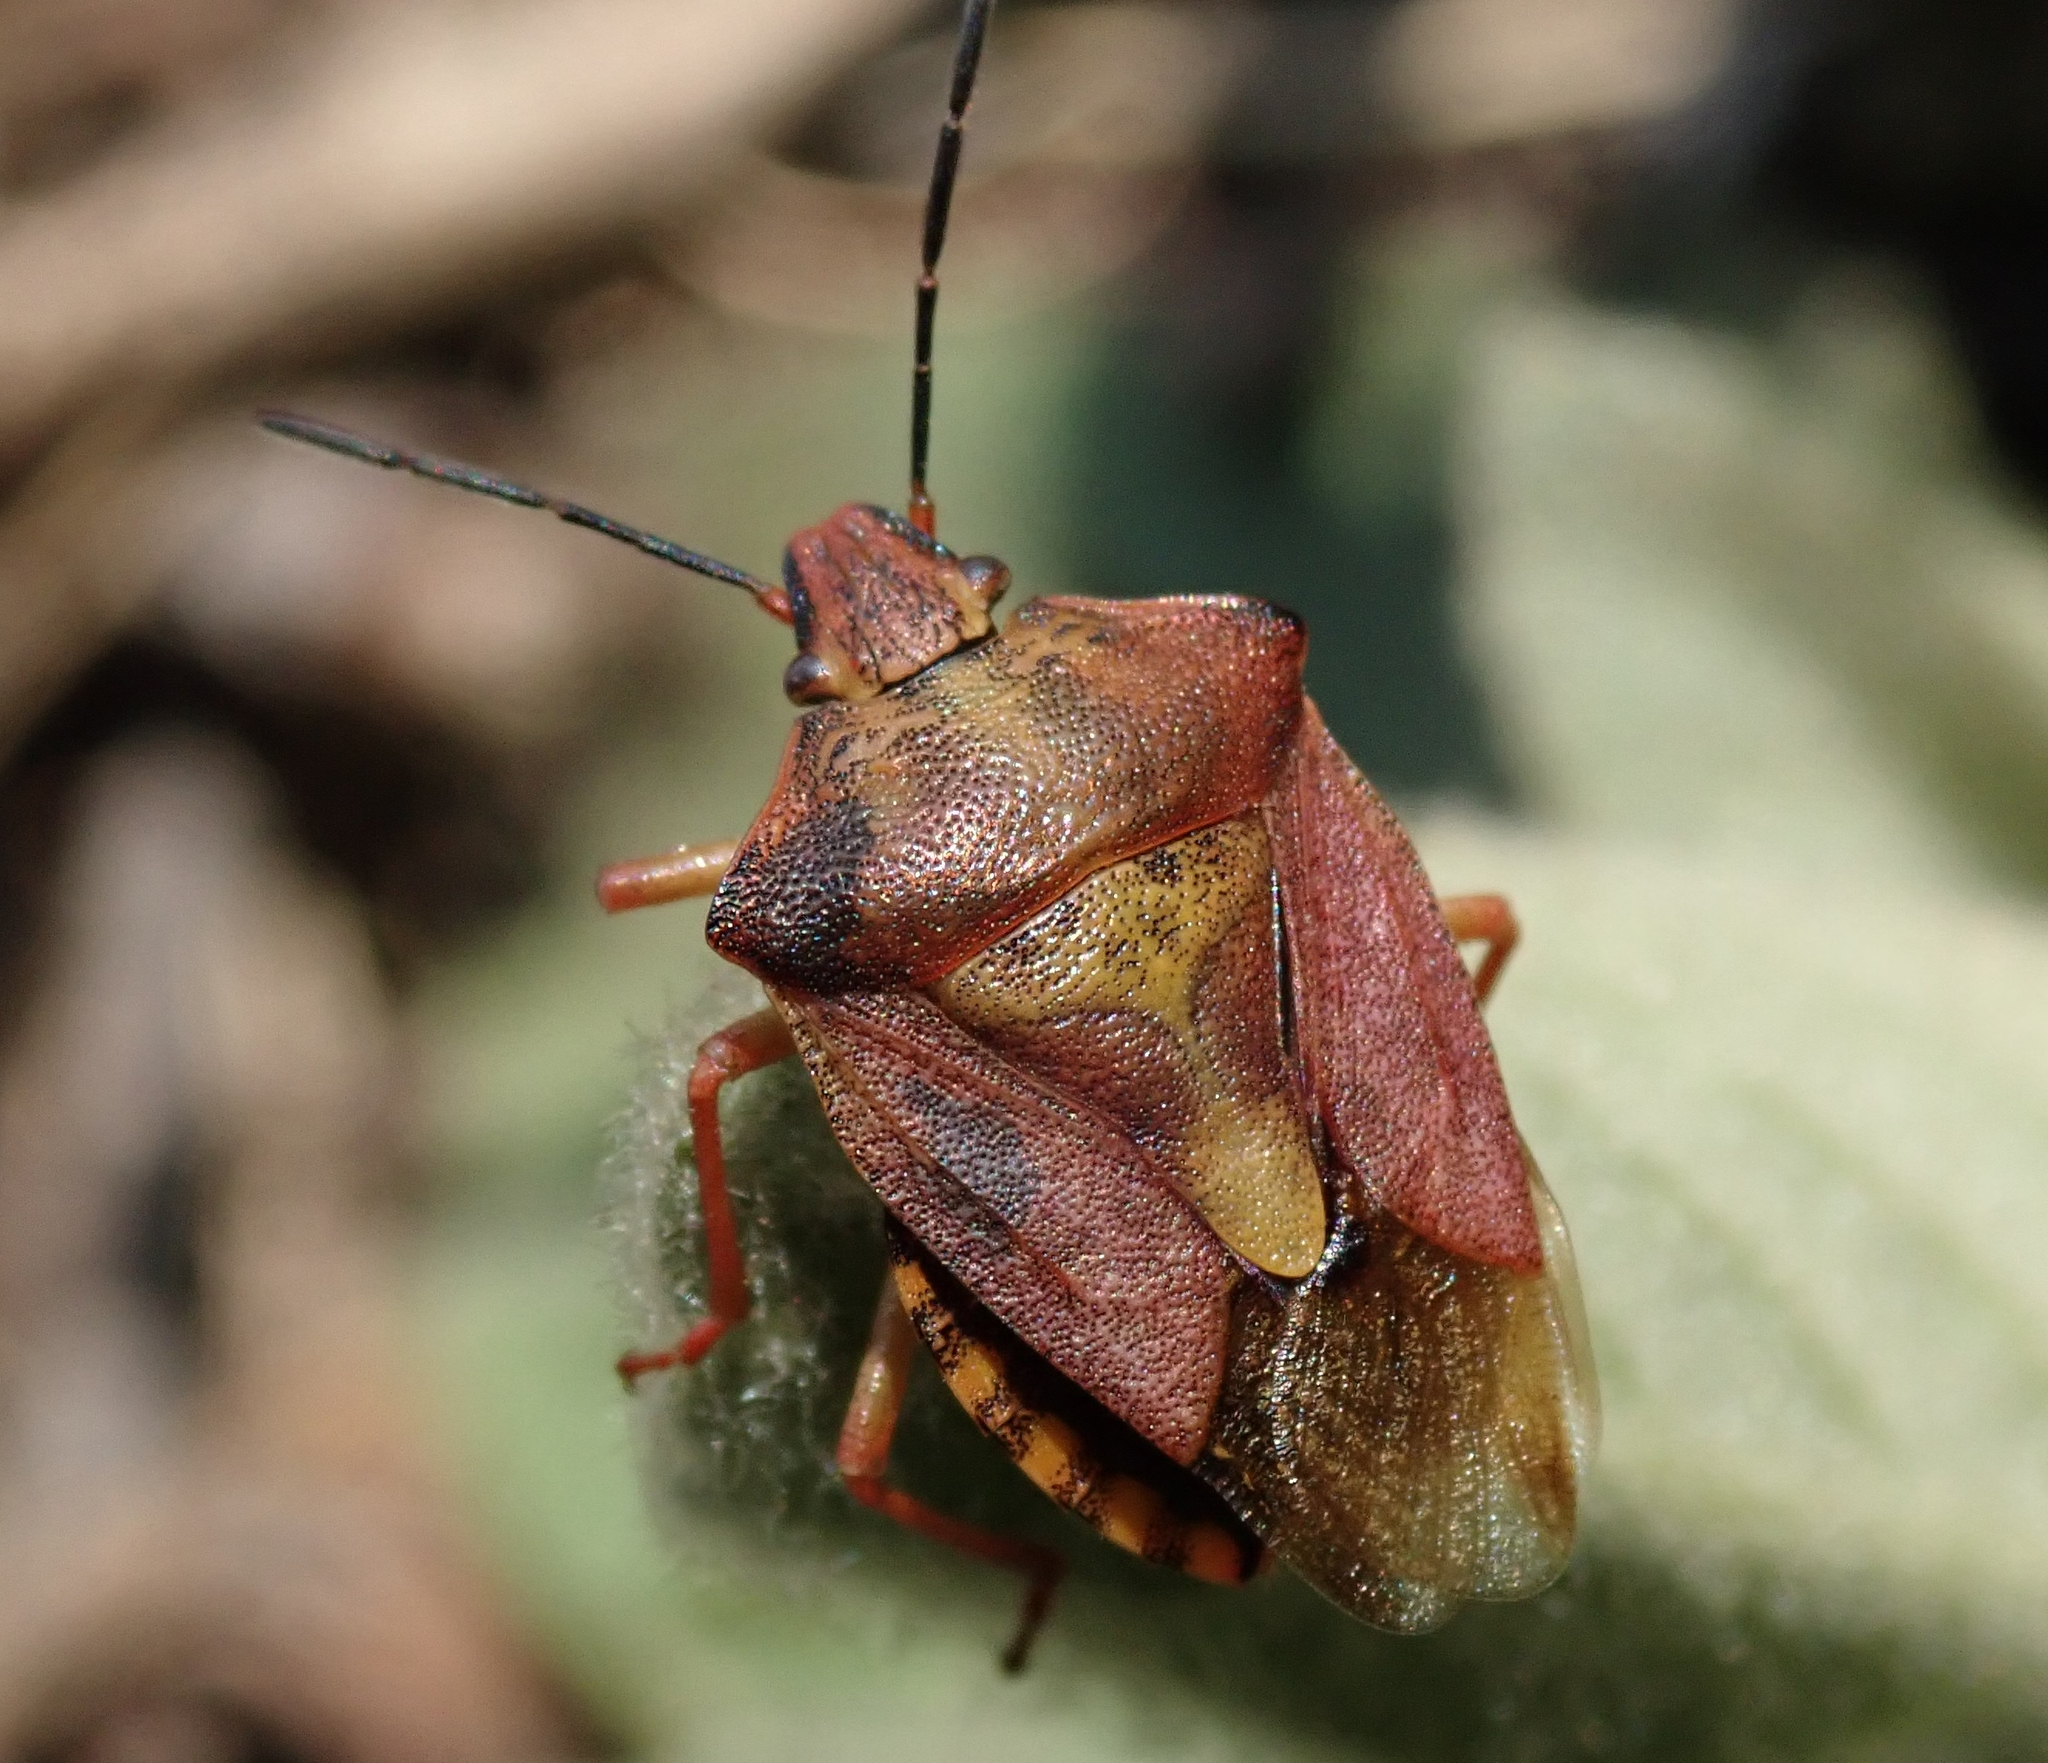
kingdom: Animalia
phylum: Arthropoda
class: Insecta
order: Hemiptera
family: Pentatomidae
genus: Carpocoris
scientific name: Carpocoris purpureipennis
